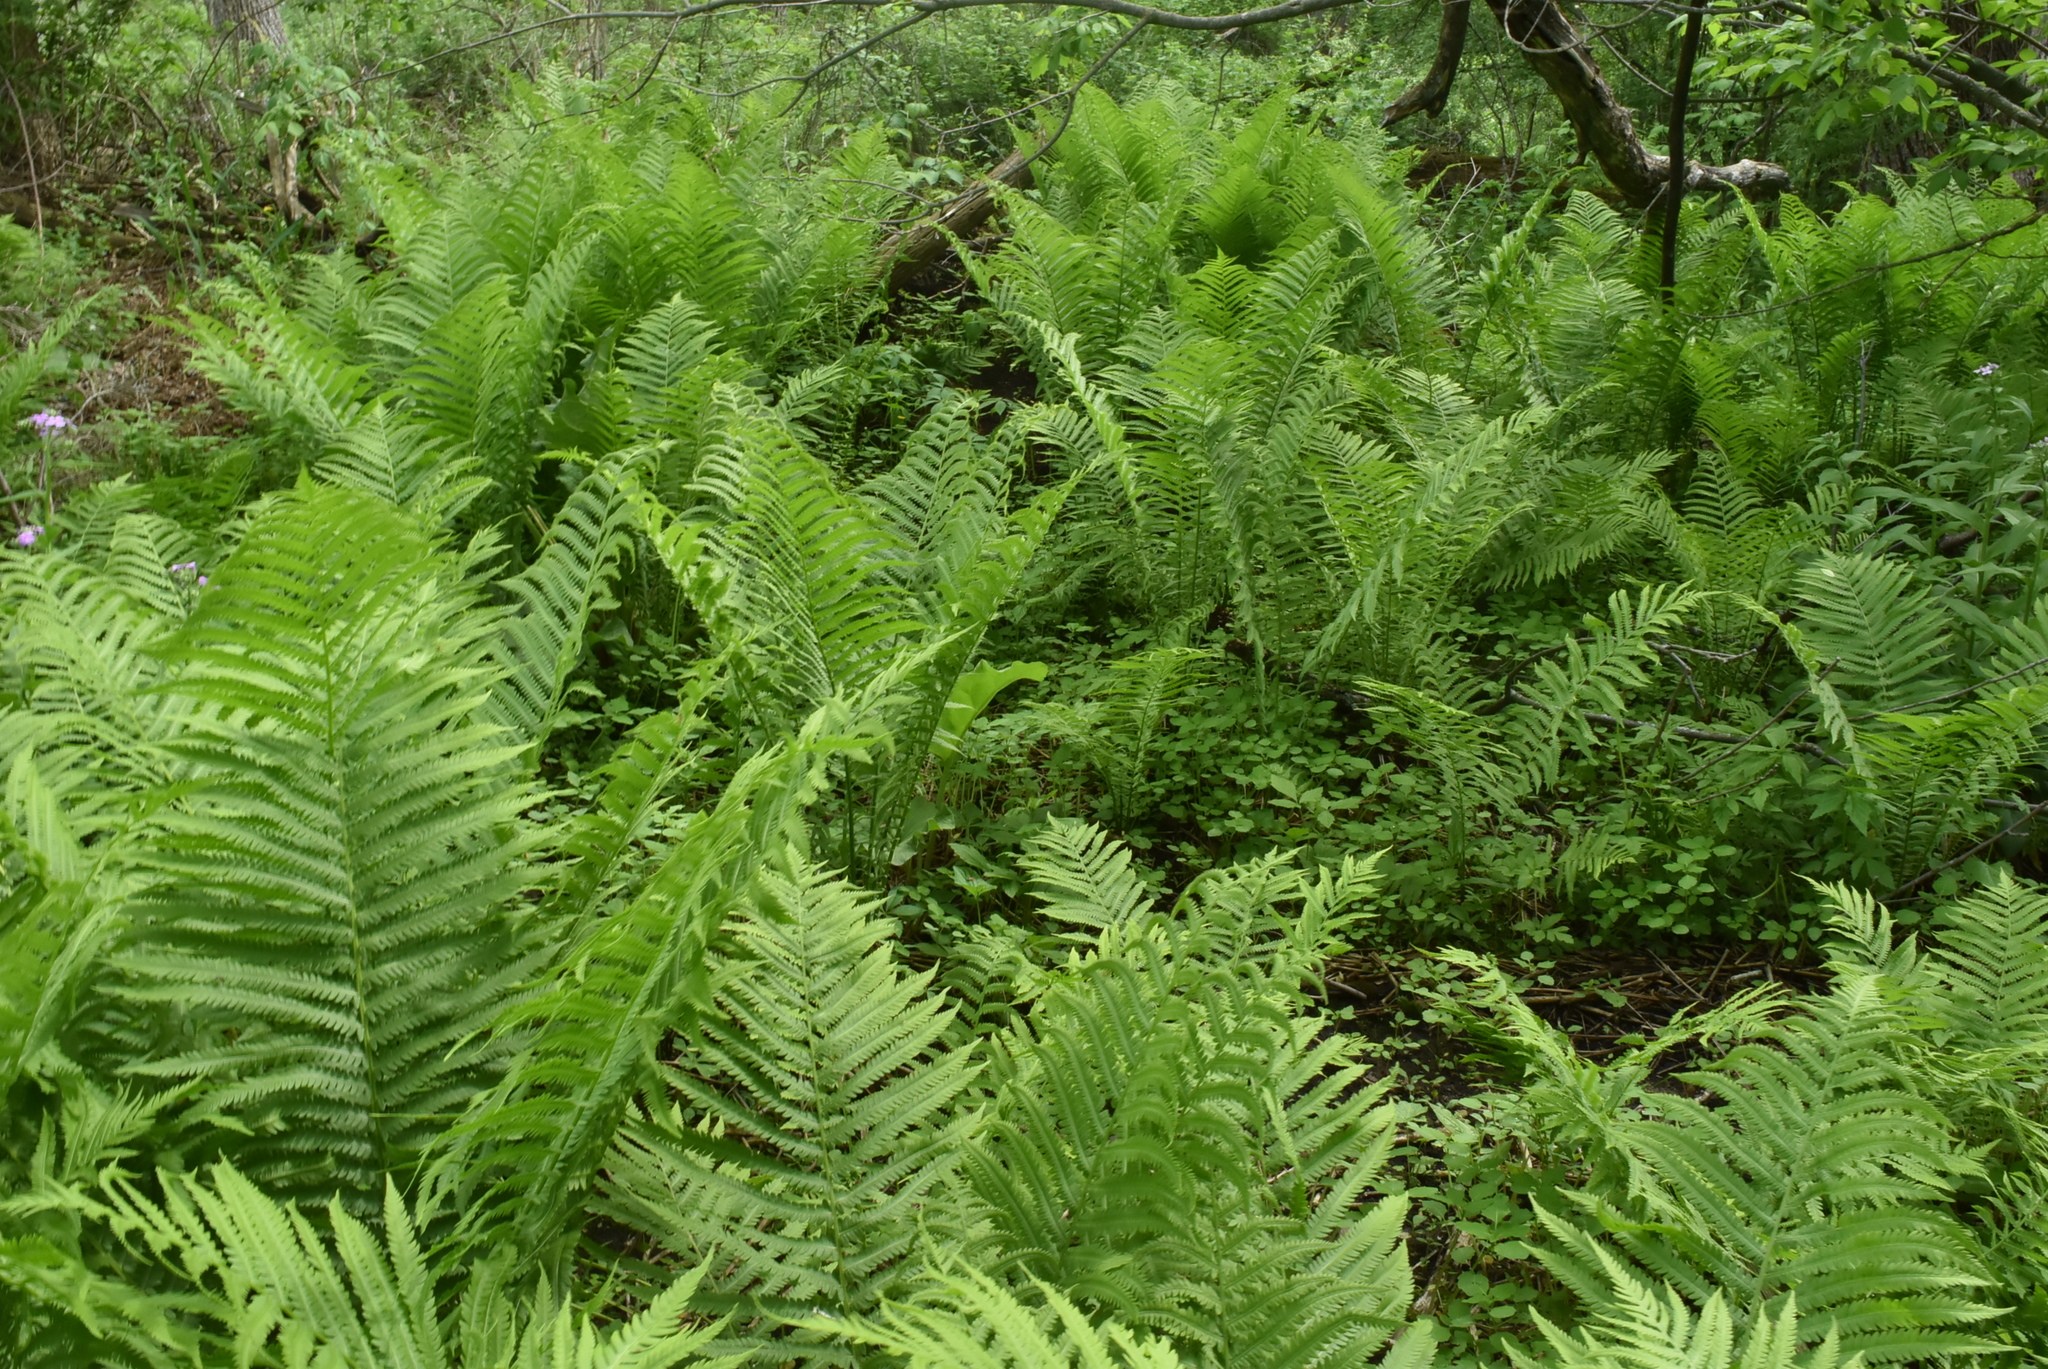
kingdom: Plantae
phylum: Tracheophyta
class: Polypodiopsida
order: Polypodiales
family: Onocleaceae
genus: Matteuccia
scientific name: Matteuccia struthiopteris
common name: Ostrich fern
